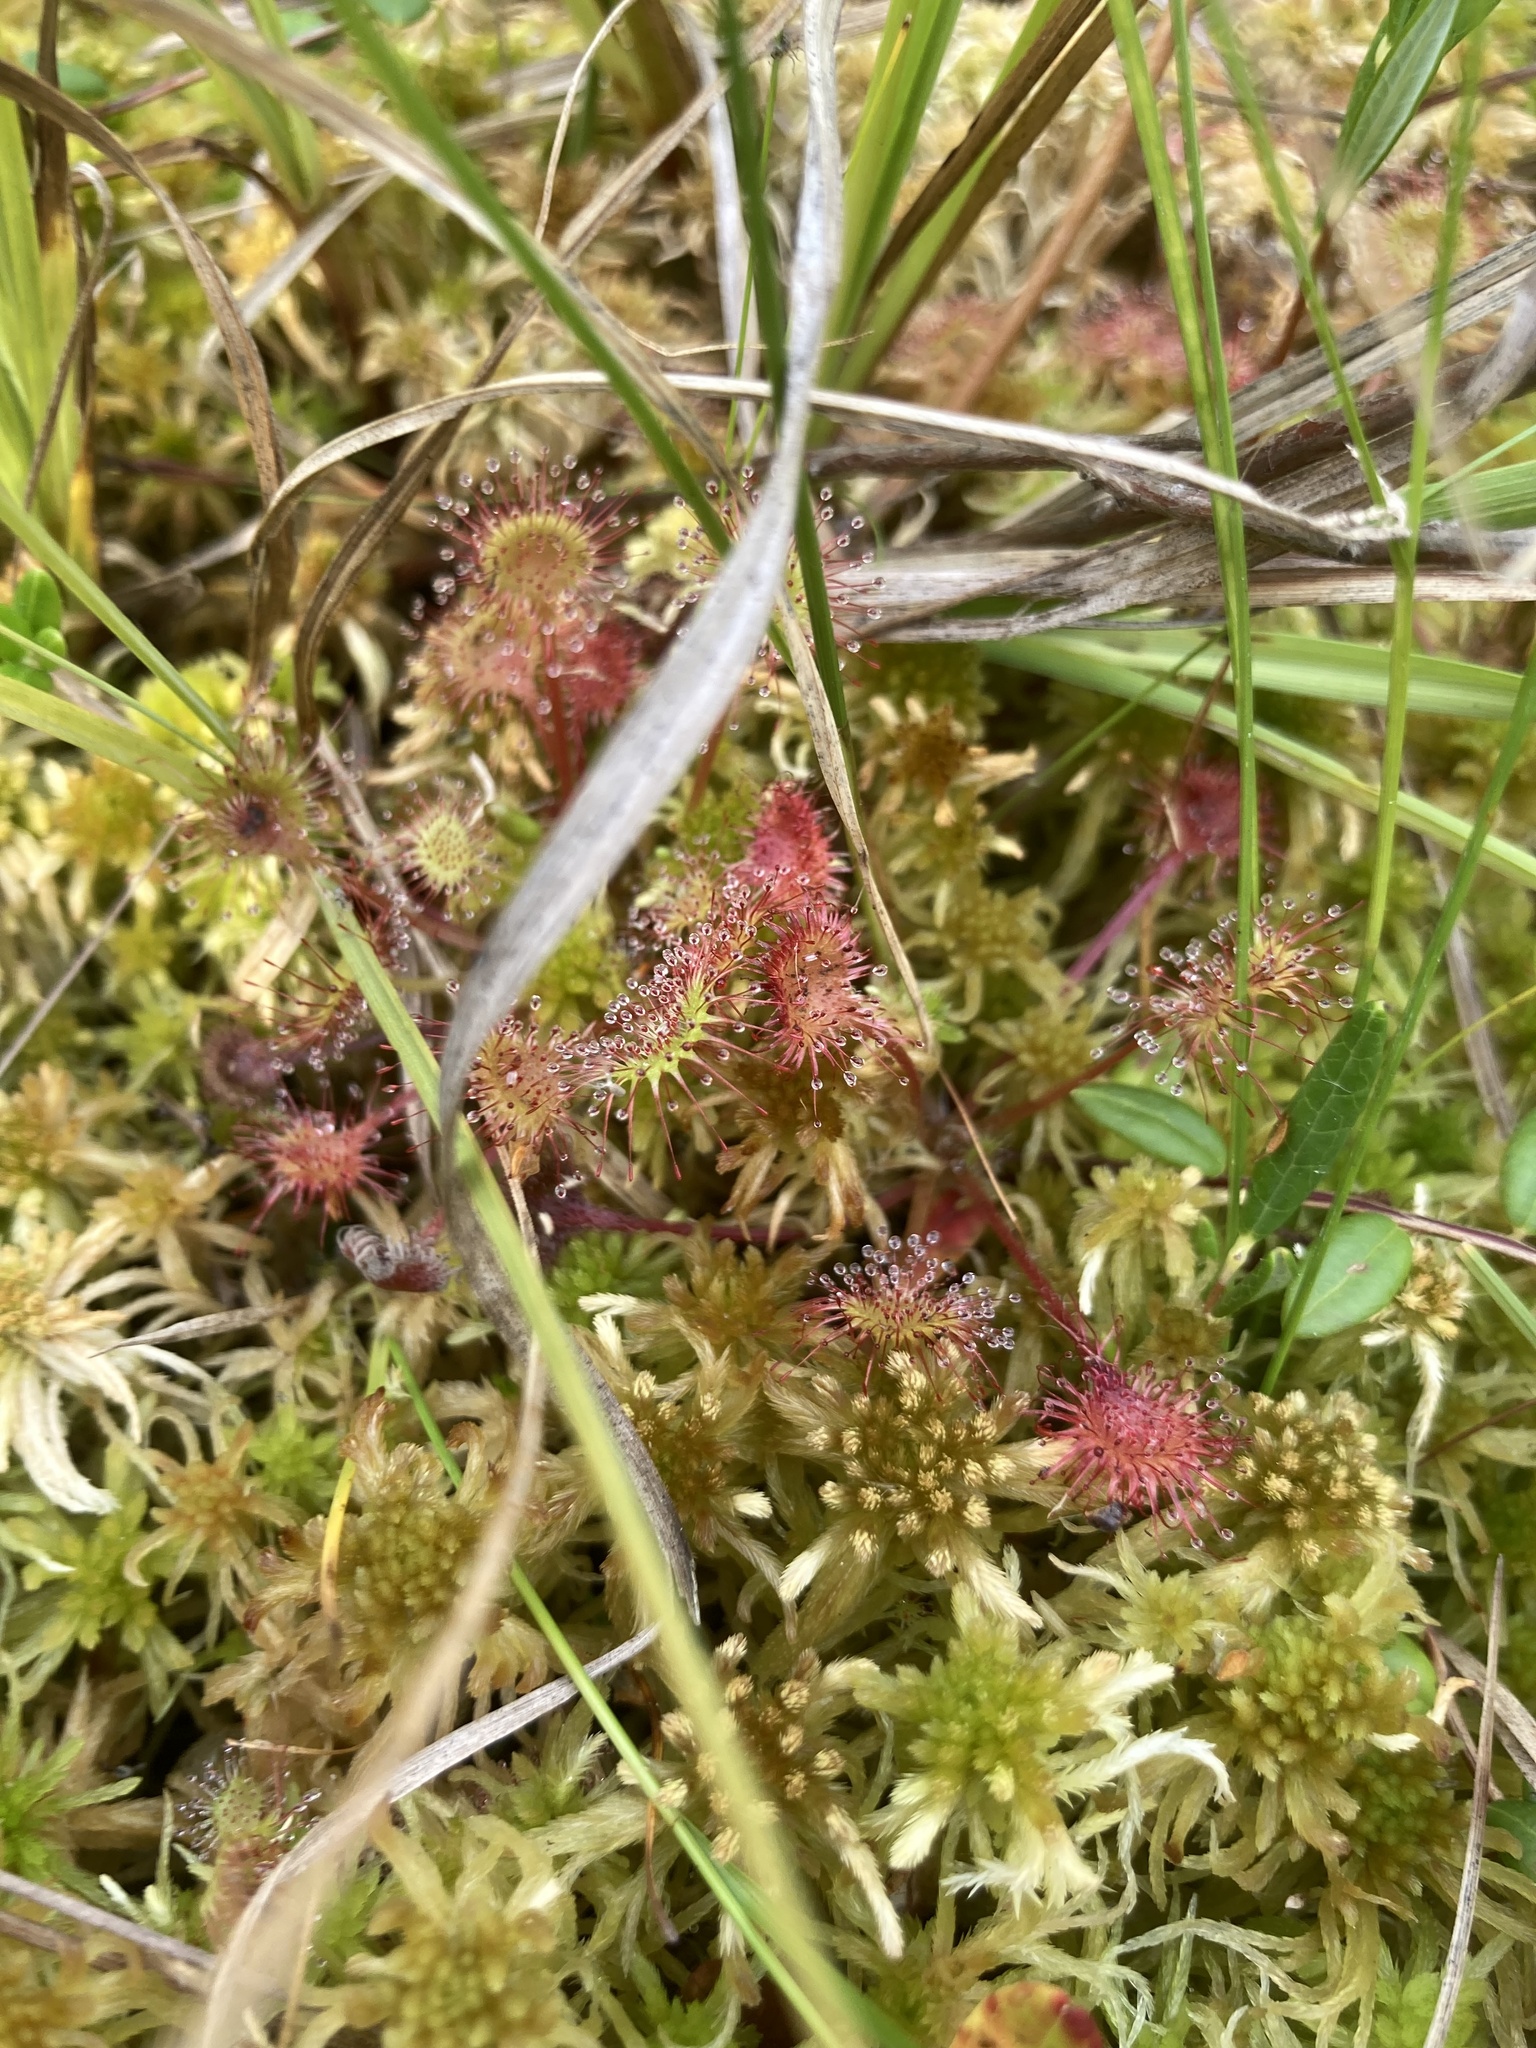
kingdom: Plantae
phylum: Tracheophyta
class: Magnoliopsida
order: Caryophyllales
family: Droseraceae
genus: Drosera
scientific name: Drosera rotundifolia
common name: Round-leaved sundew
